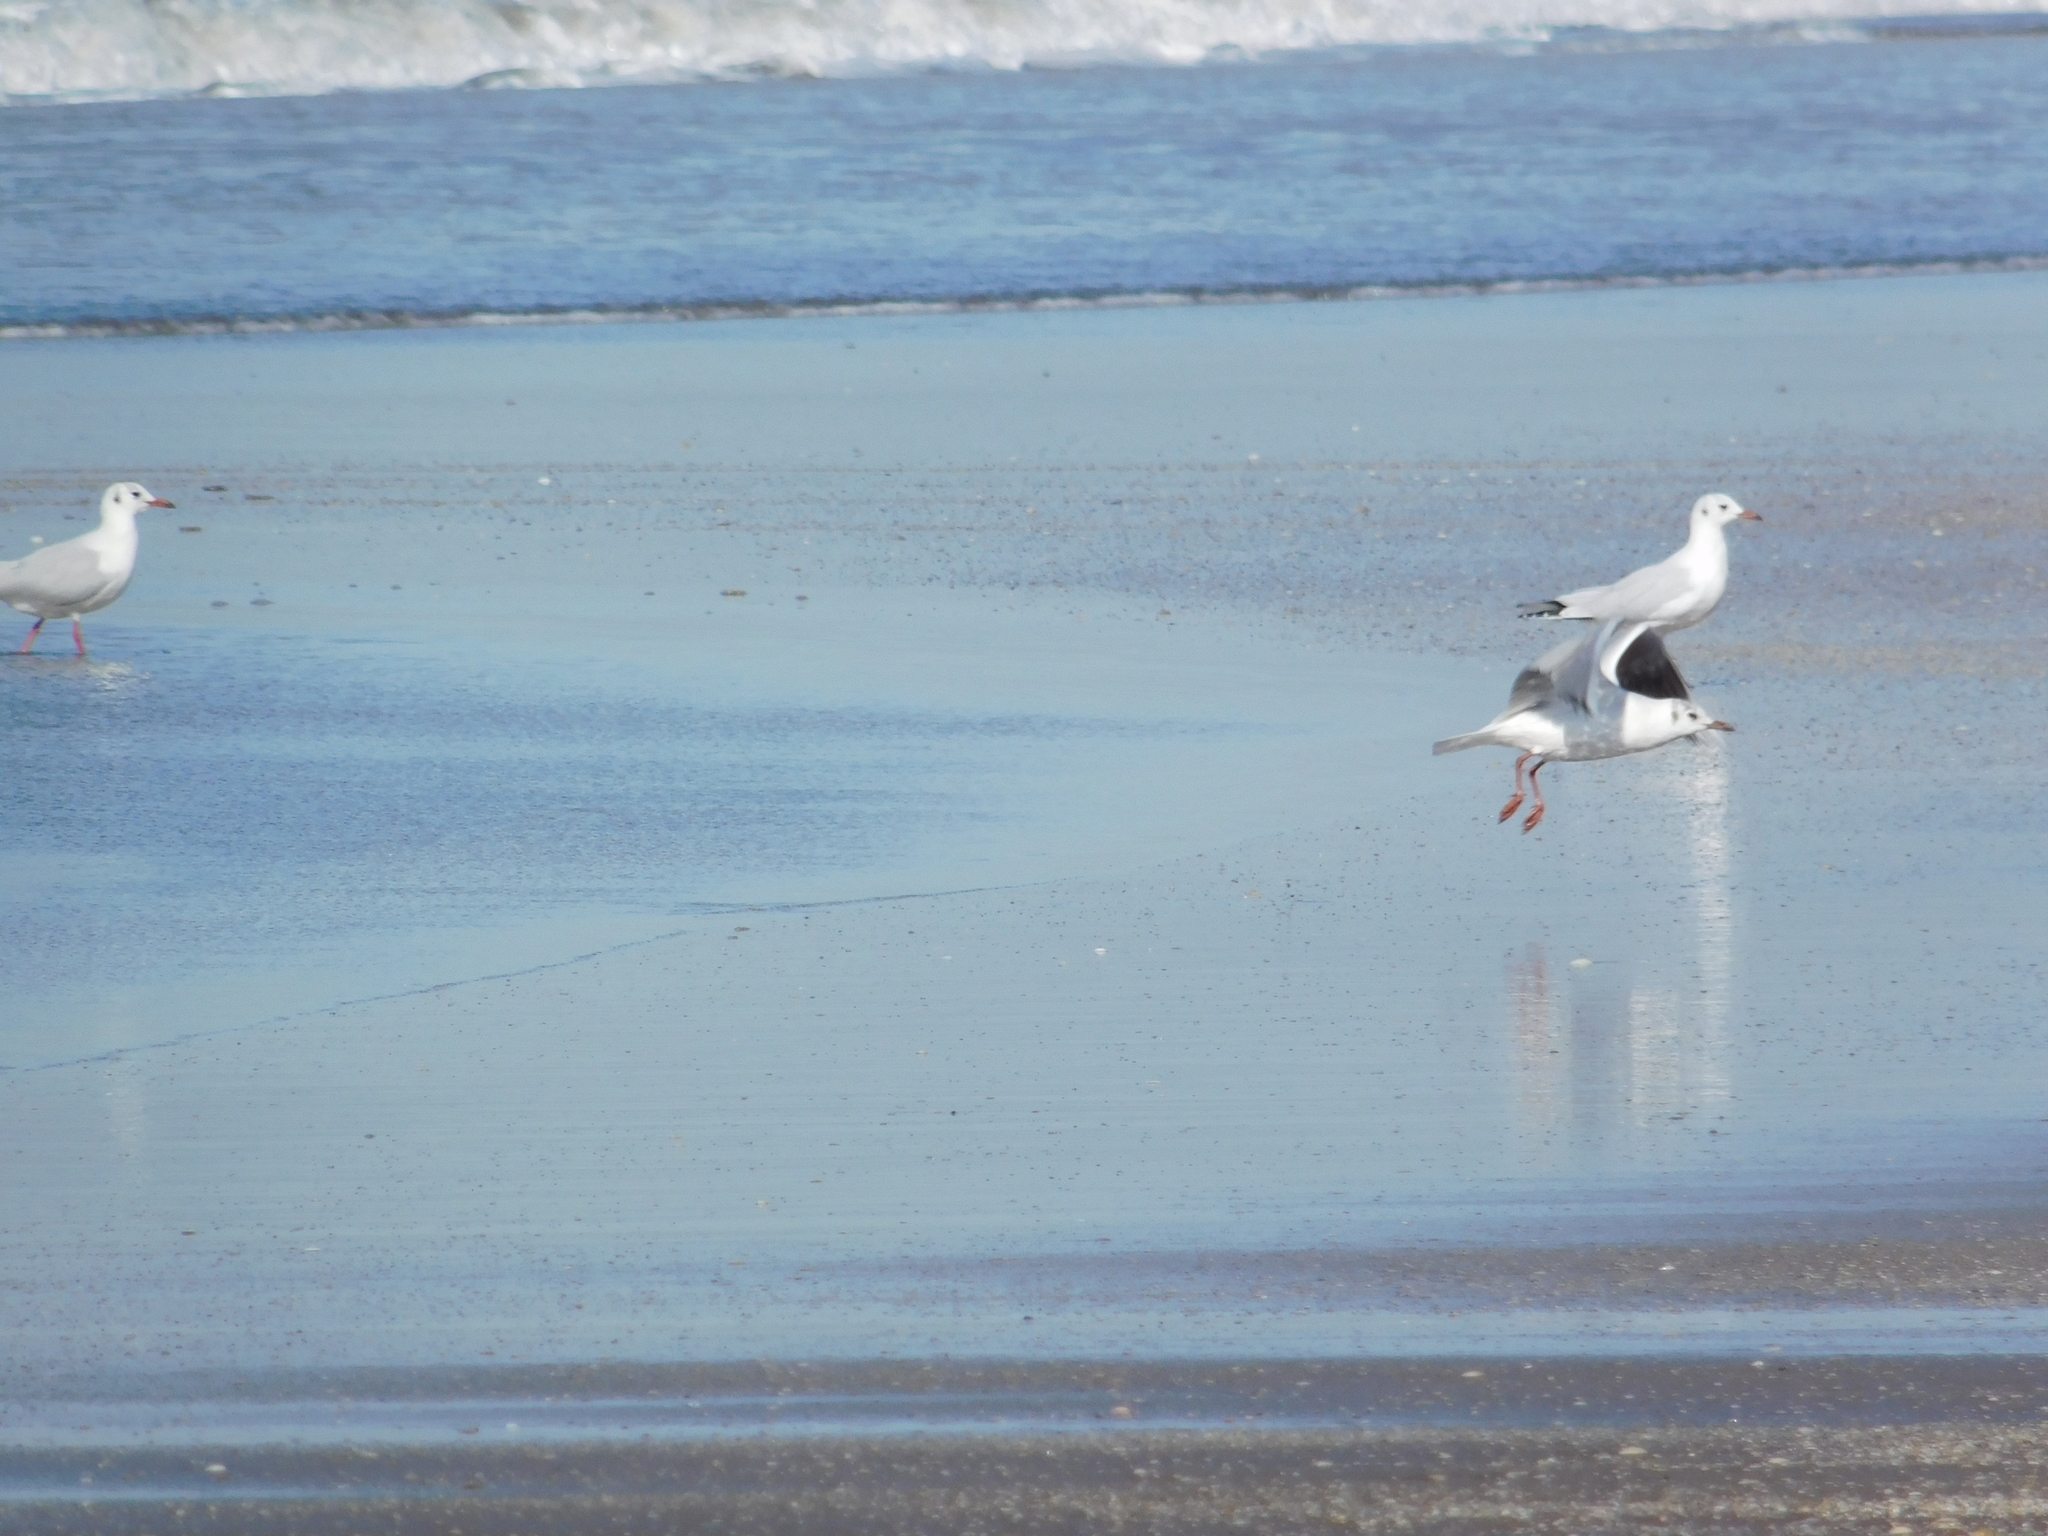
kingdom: Animalia
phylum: Chordata
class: Aves
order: Charadriiformes
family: Laridae
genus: Chroicocephalus
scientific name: Chroicocephalus maculipennis
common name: Brown-hooded gull
